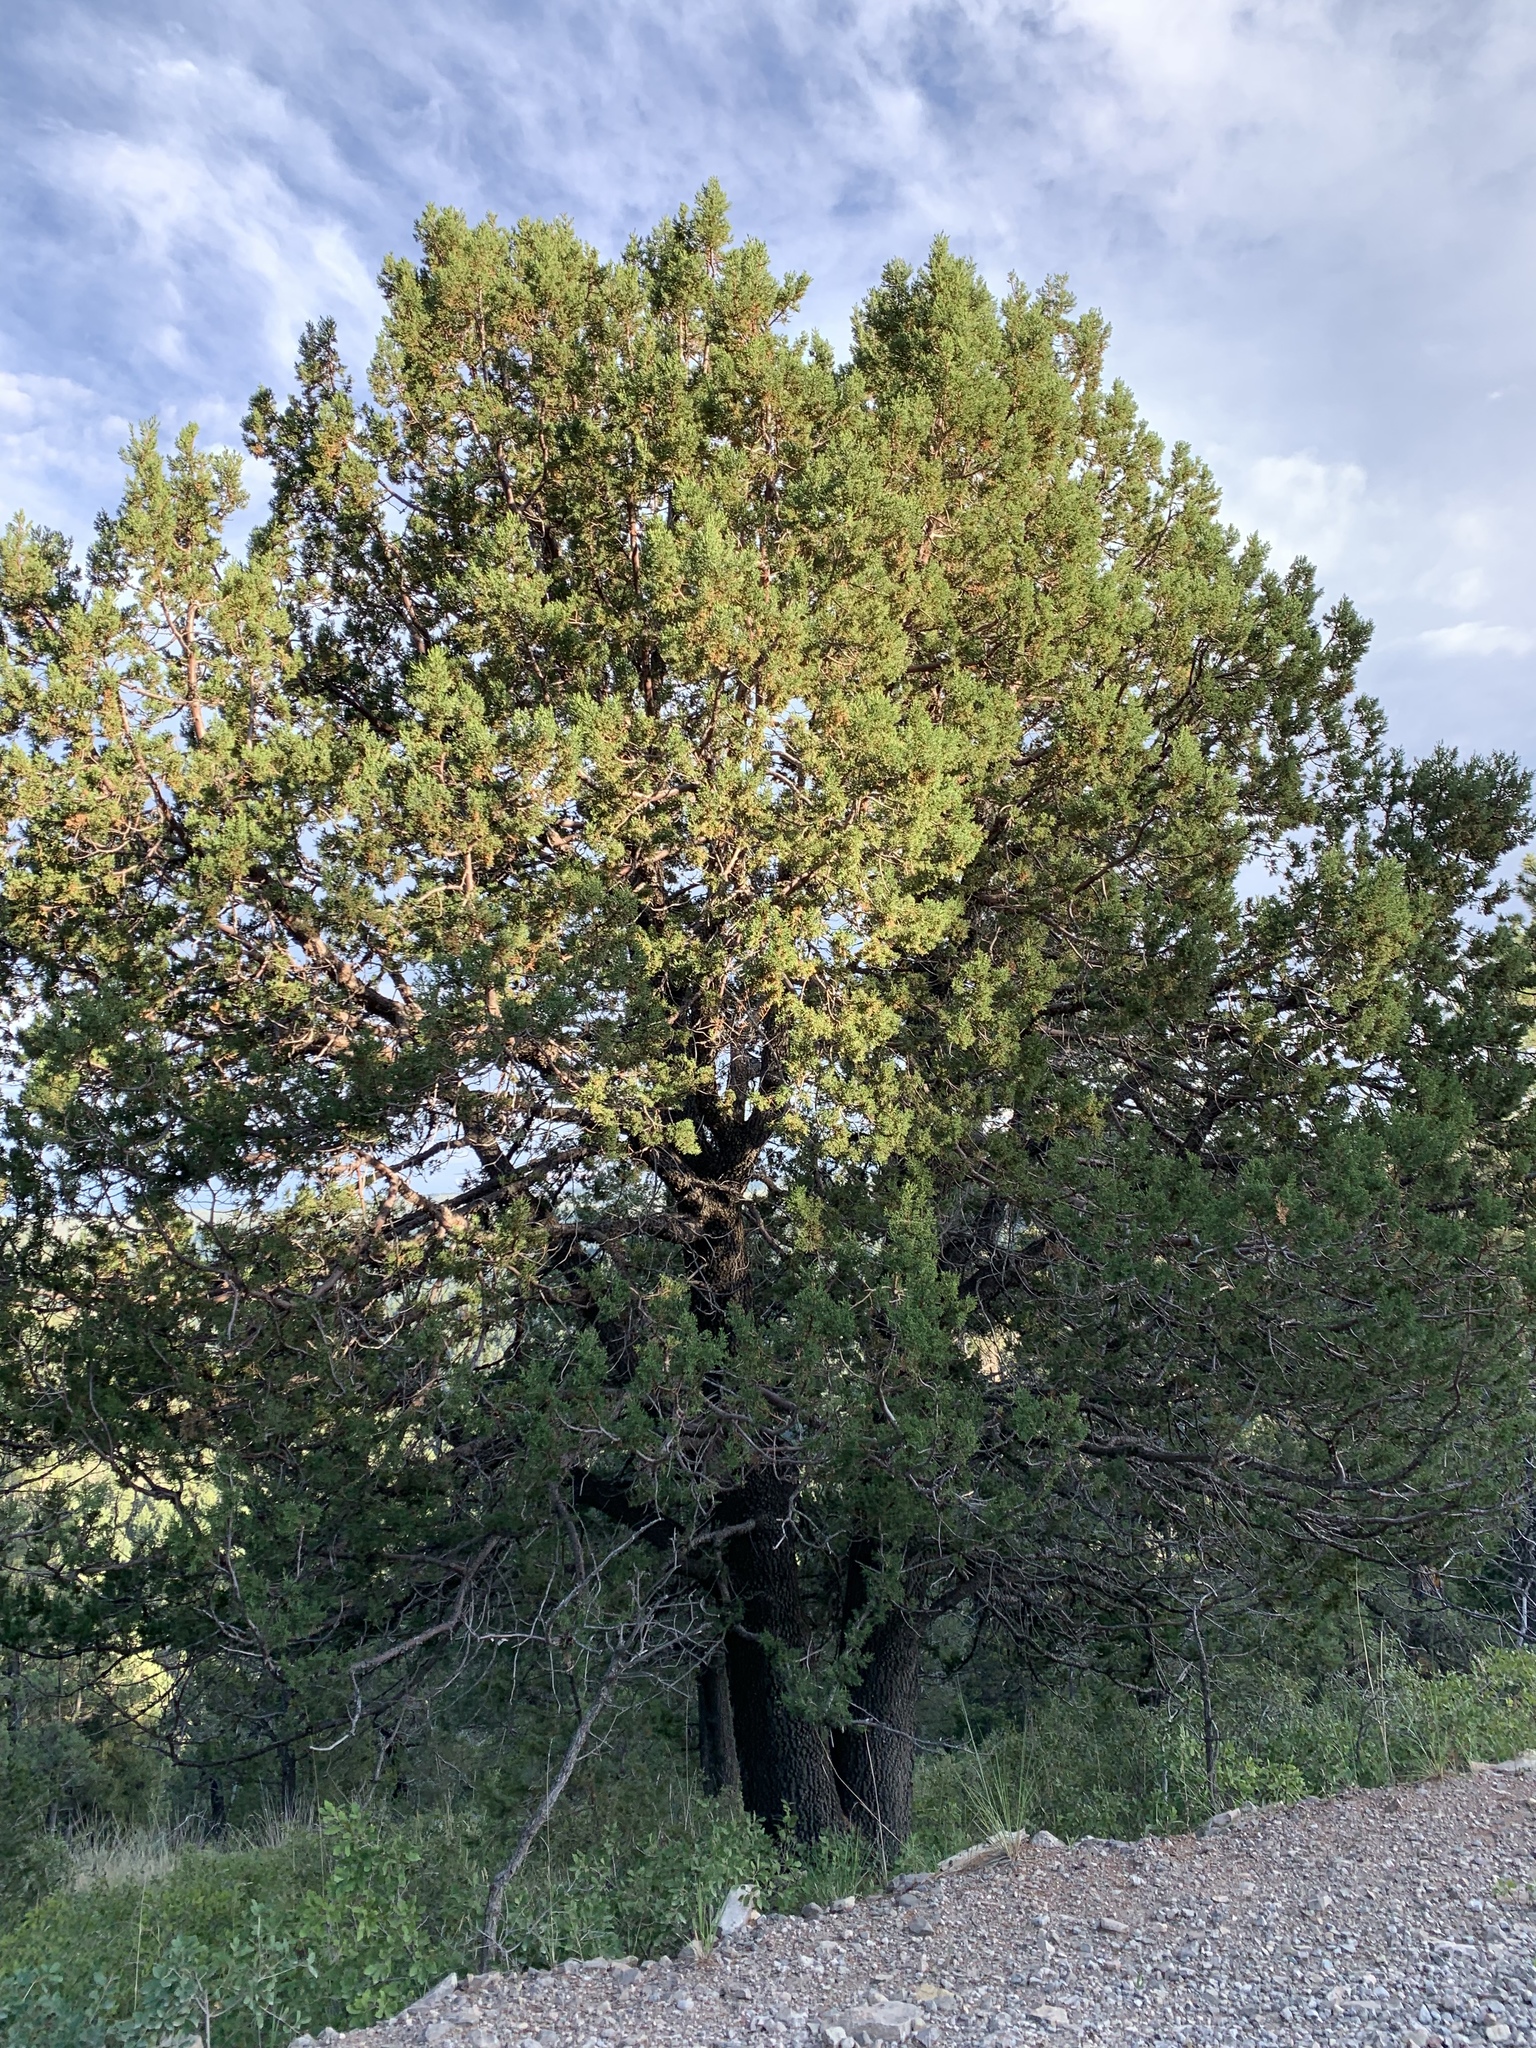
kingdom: Plantae
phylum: Tracheophyta
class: Pinopsida
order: Pinales
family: Cupressaceae
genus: Juniperus
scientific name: Juniperus deppeana
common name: Alligator juniper
